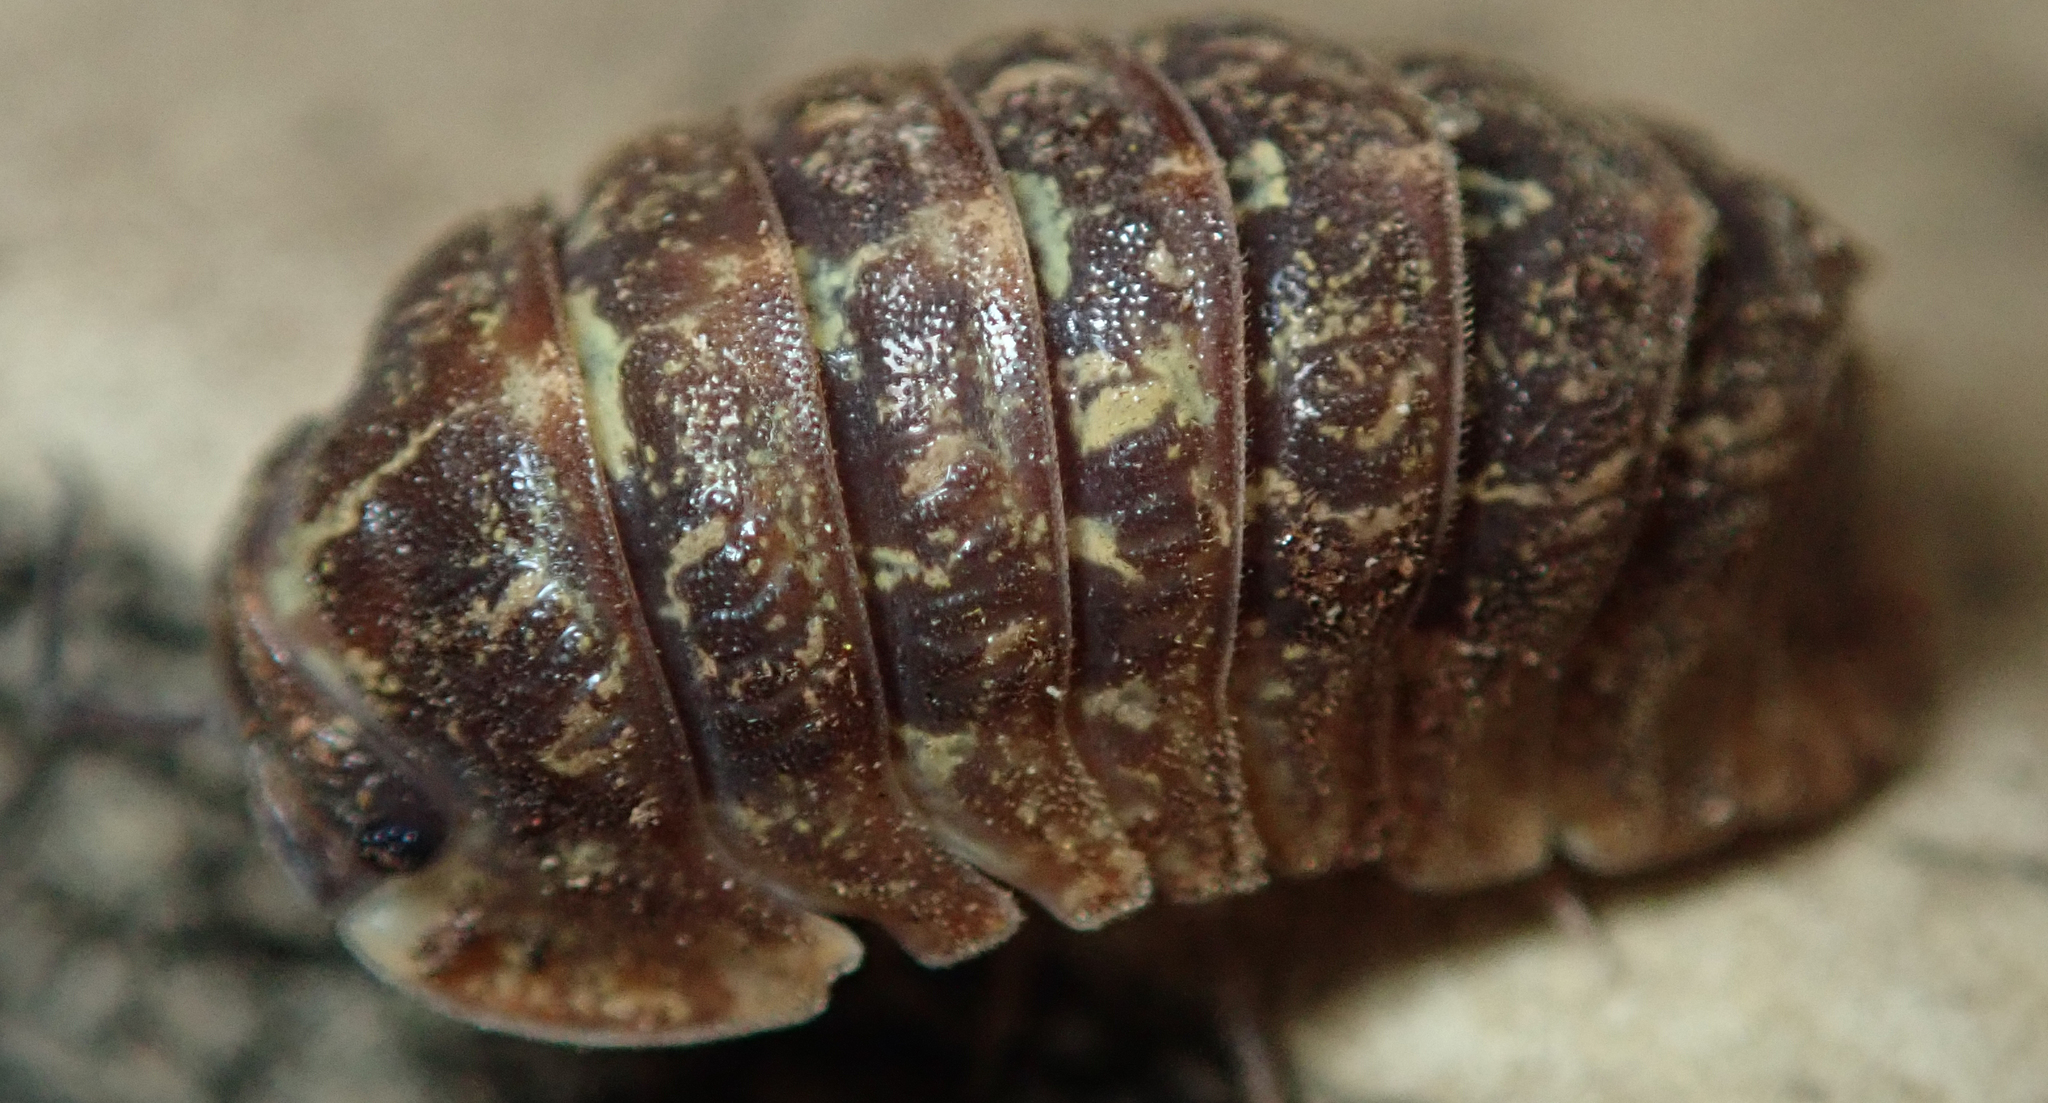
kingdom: Animalia
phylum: Arthropoda
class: Malacostraca
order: Isopoda
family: Armadillidae
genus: Barnardillo
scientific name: Barnardillo barnardi
